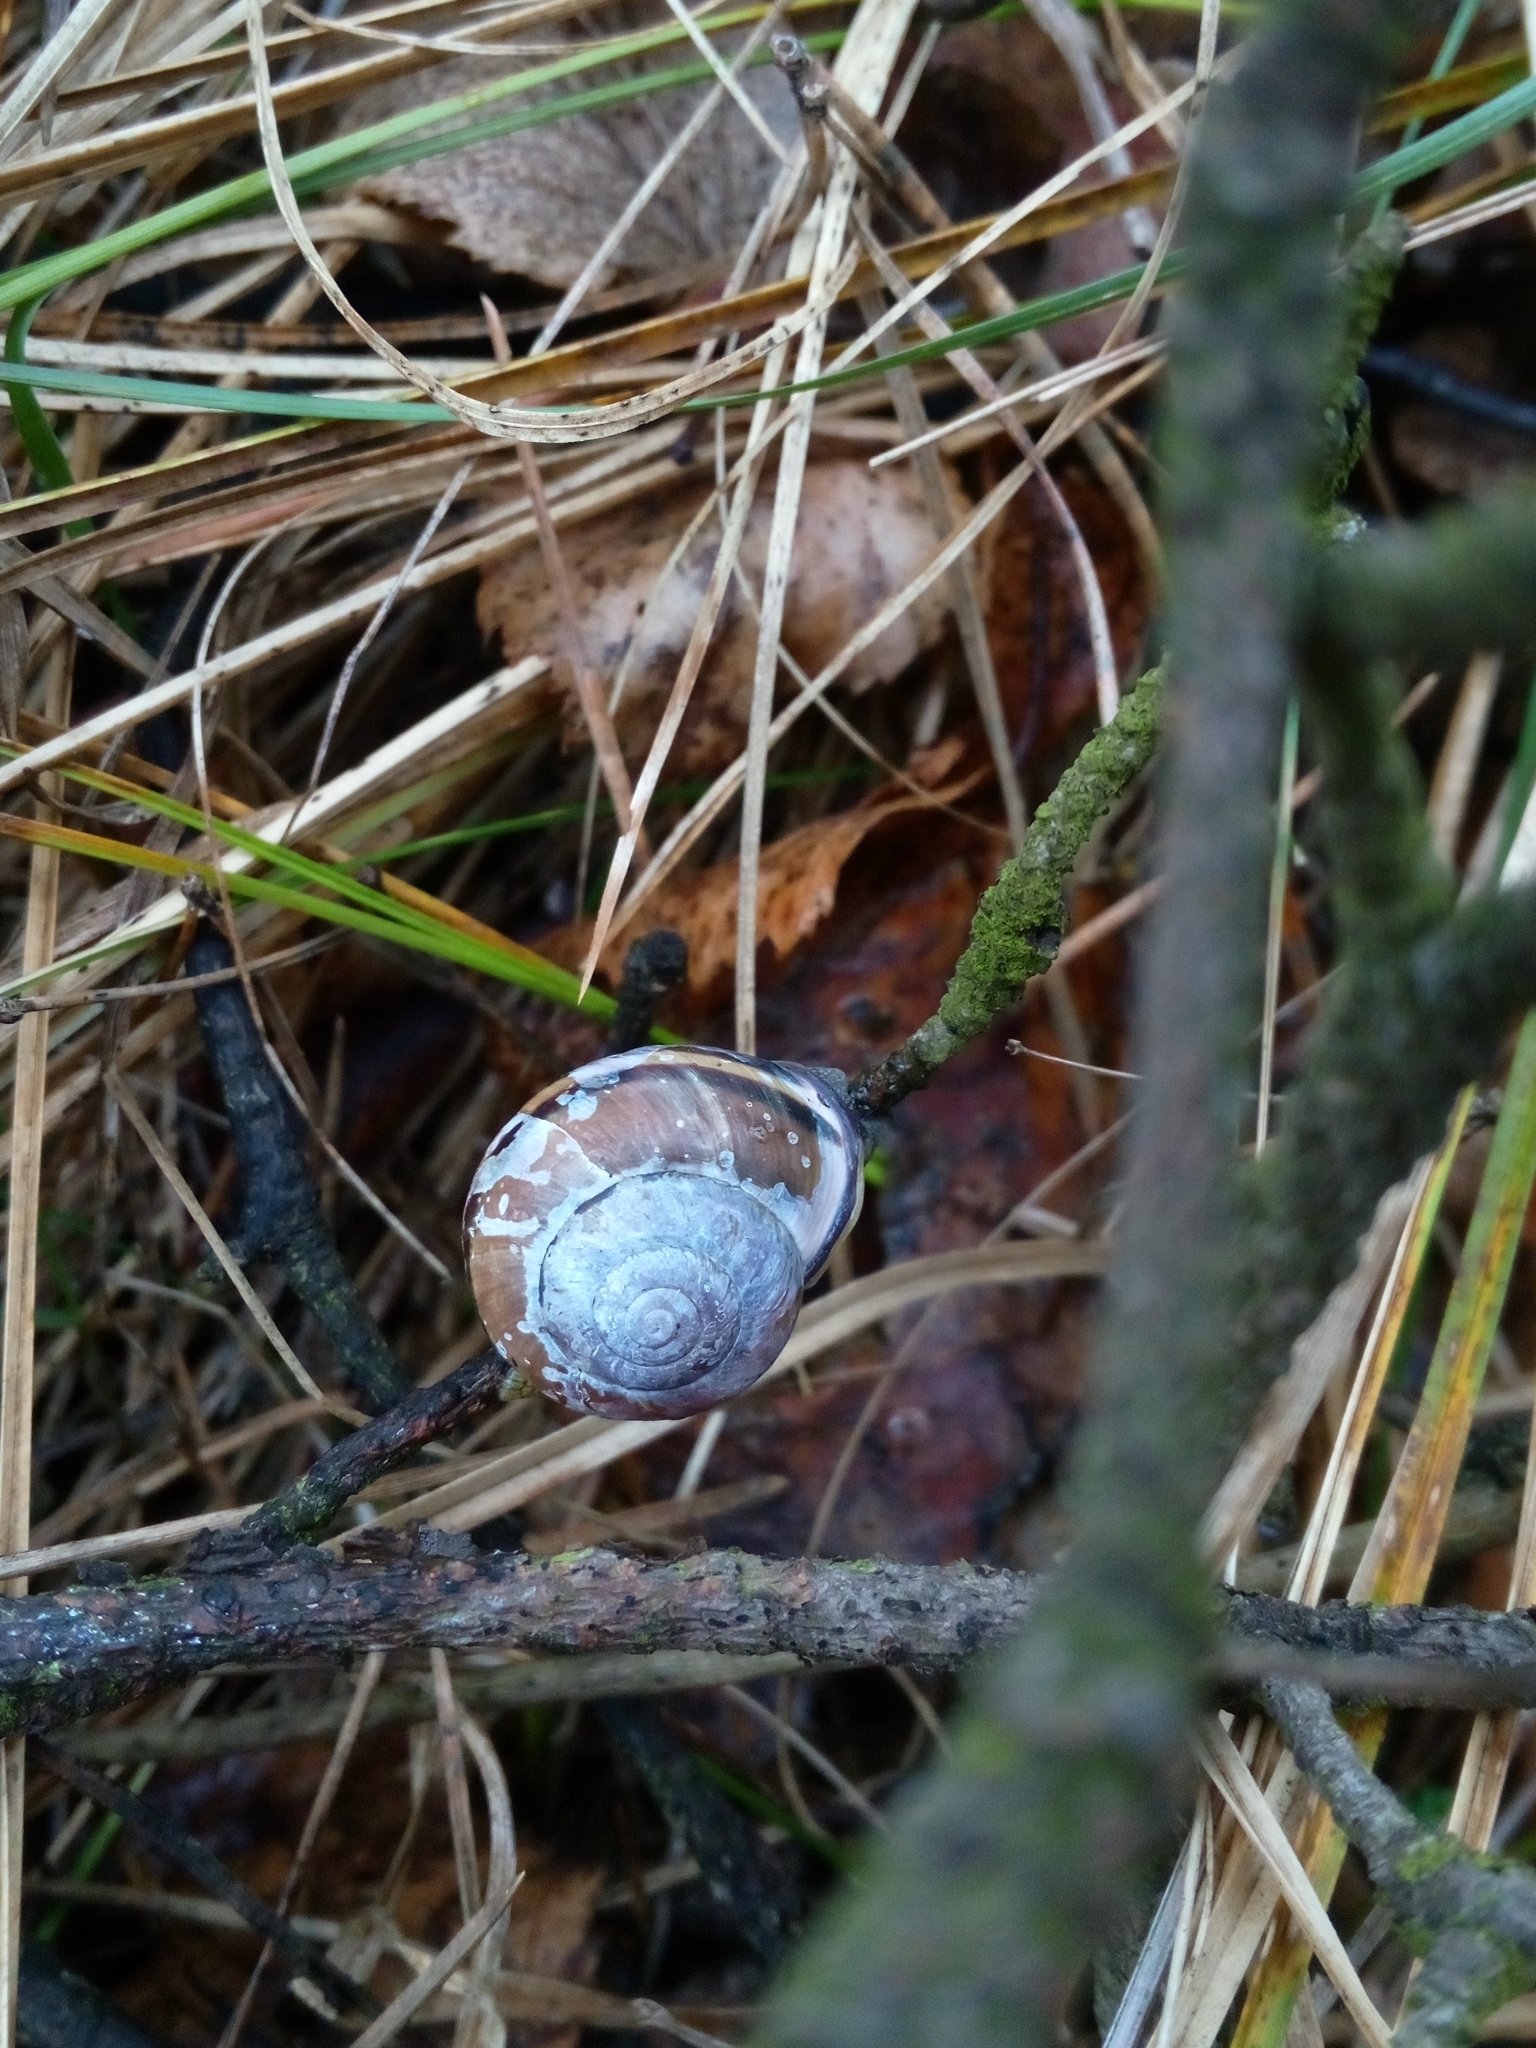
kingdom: Animalia
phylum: Mollusca
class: Gastropoda
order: Stylommatophora
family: Helicidae
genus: Cepaea
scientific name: Cepaea nemoralis
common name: Grovesnail
